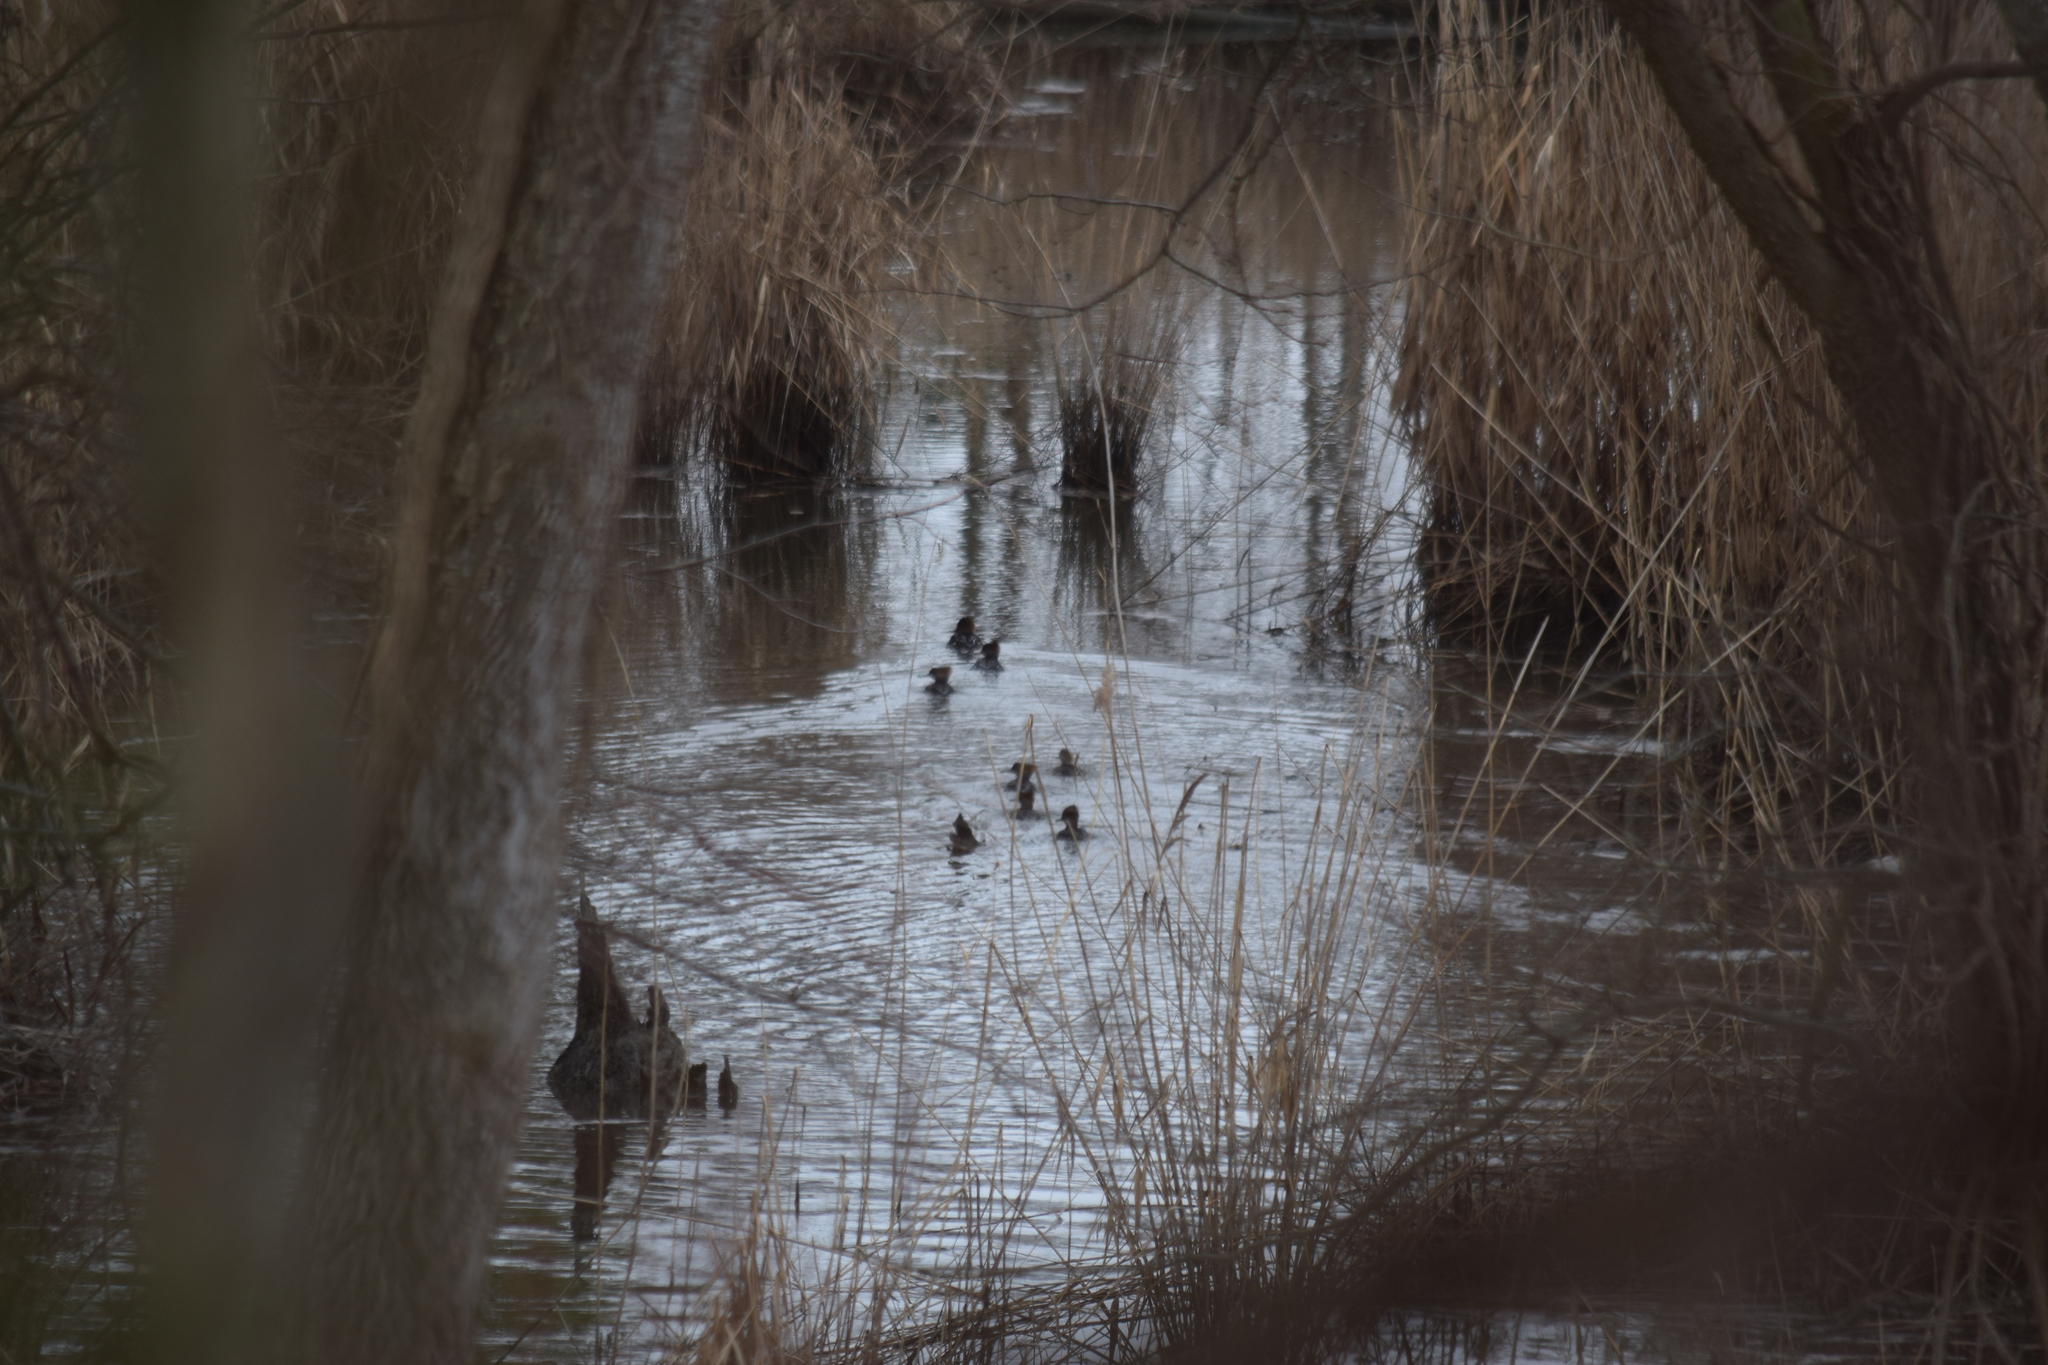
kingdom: Animalia
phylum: Chordata
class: Aves
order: Anseriformes
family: Anatidae
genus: Lophodytes
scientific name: Lophodytes cucullatus
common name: Hooded merganser
